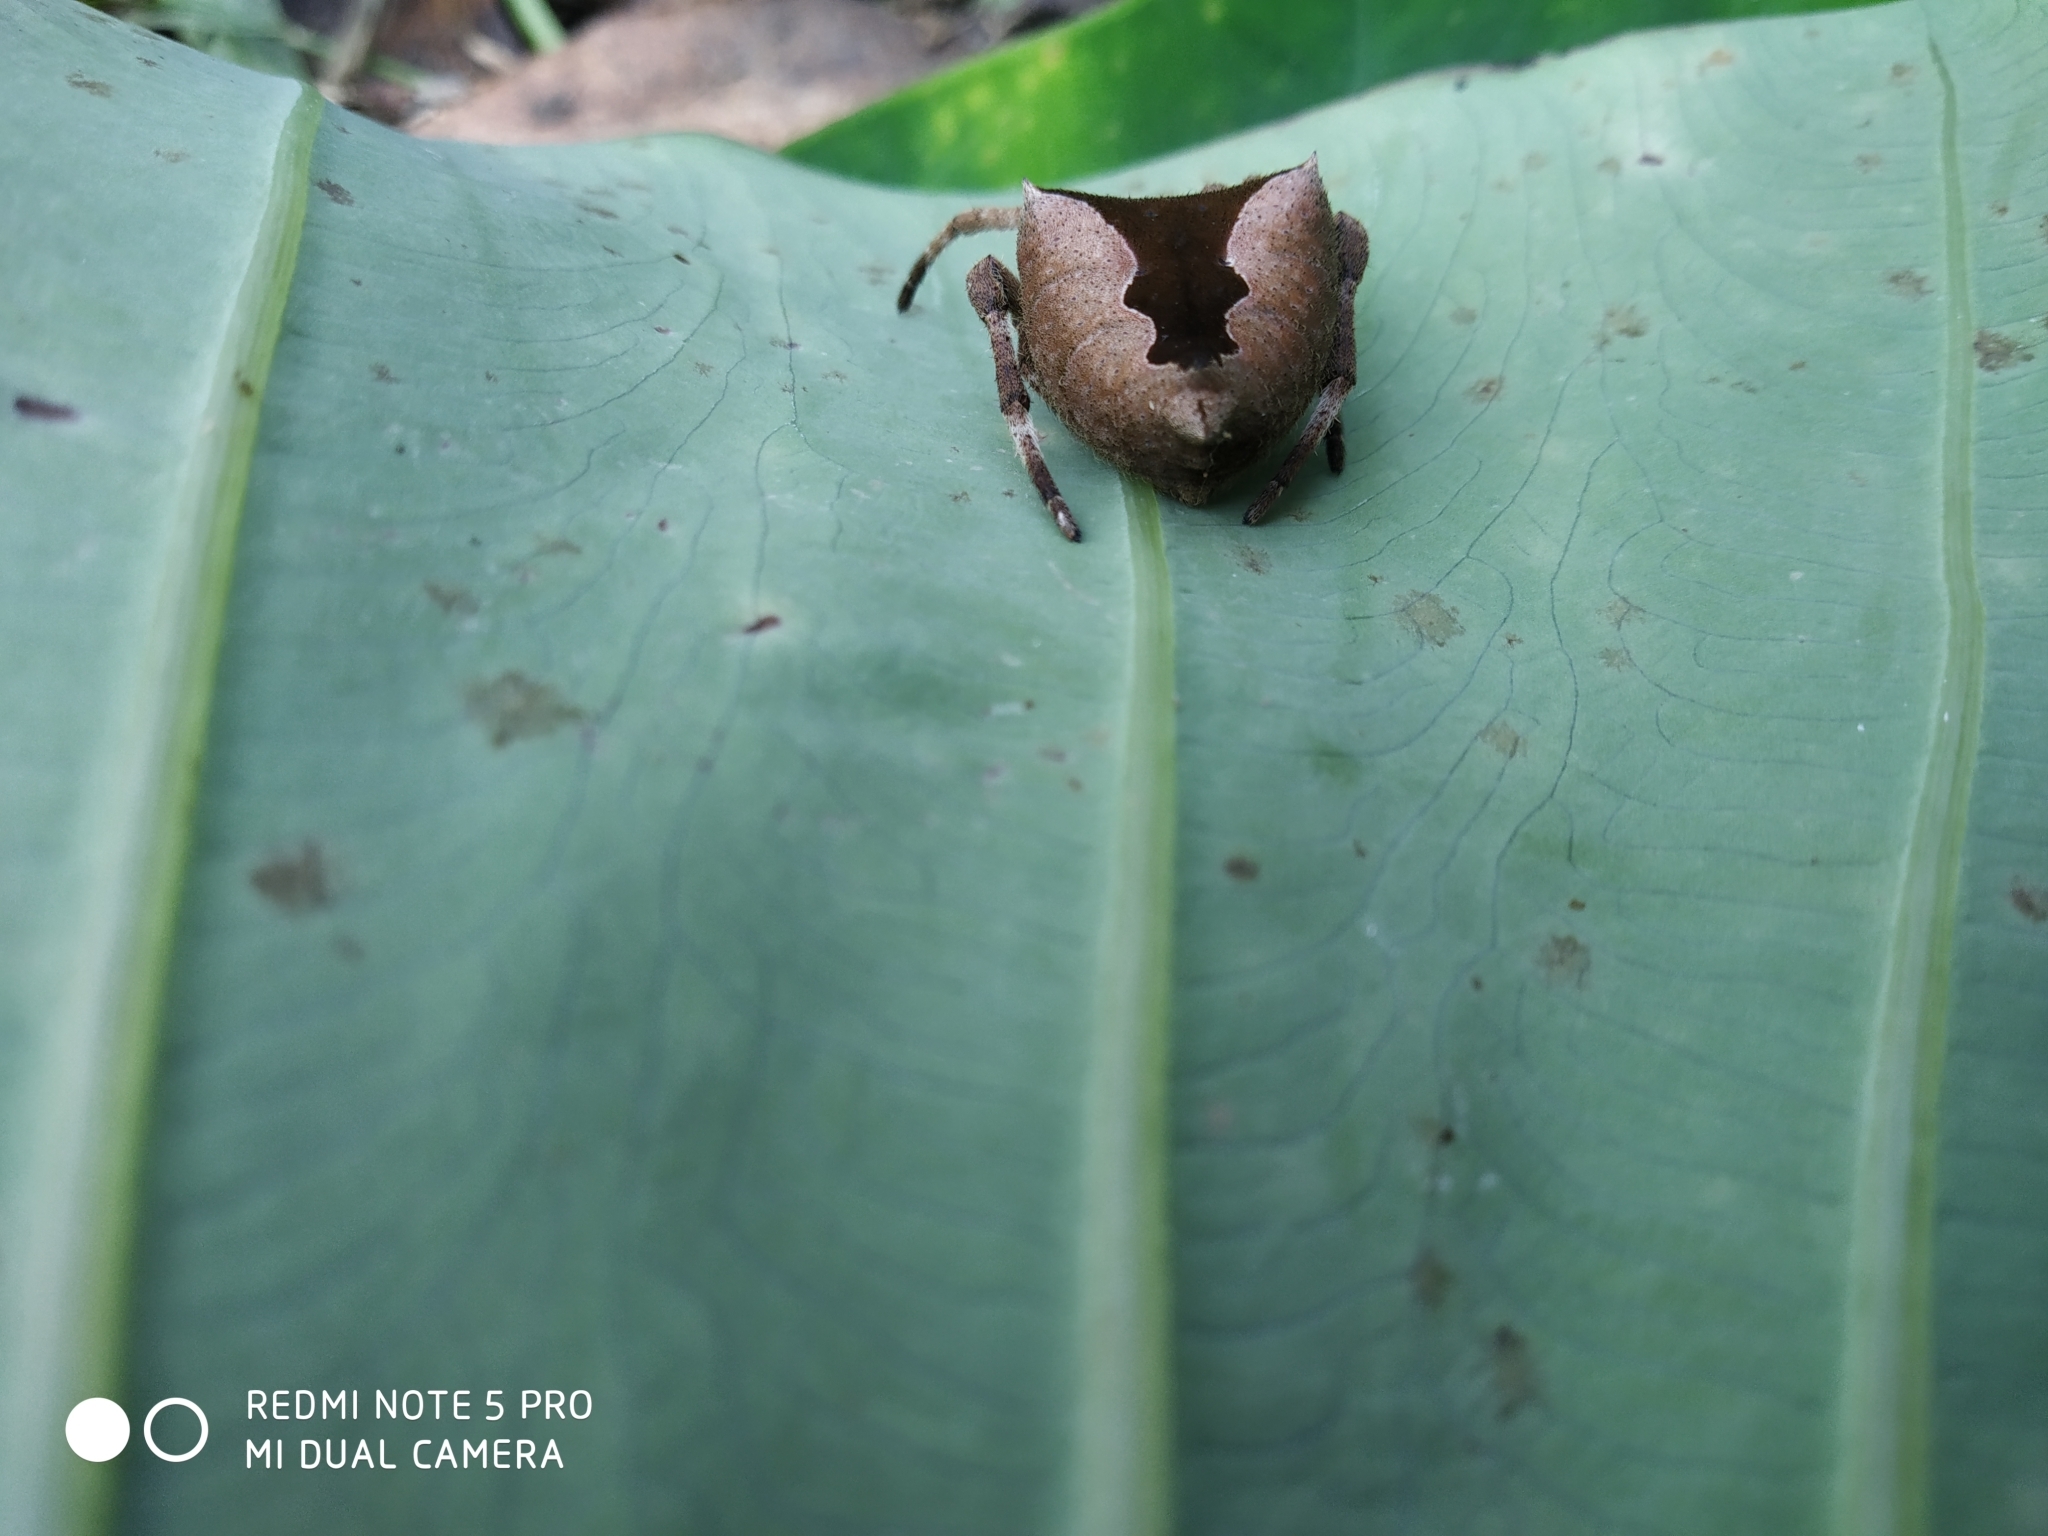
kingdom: Animalia
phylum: Arthropoda
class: Arachnida
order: Araneae
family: Araneidae
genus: Parawixia
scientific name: Parawixia dehaani
